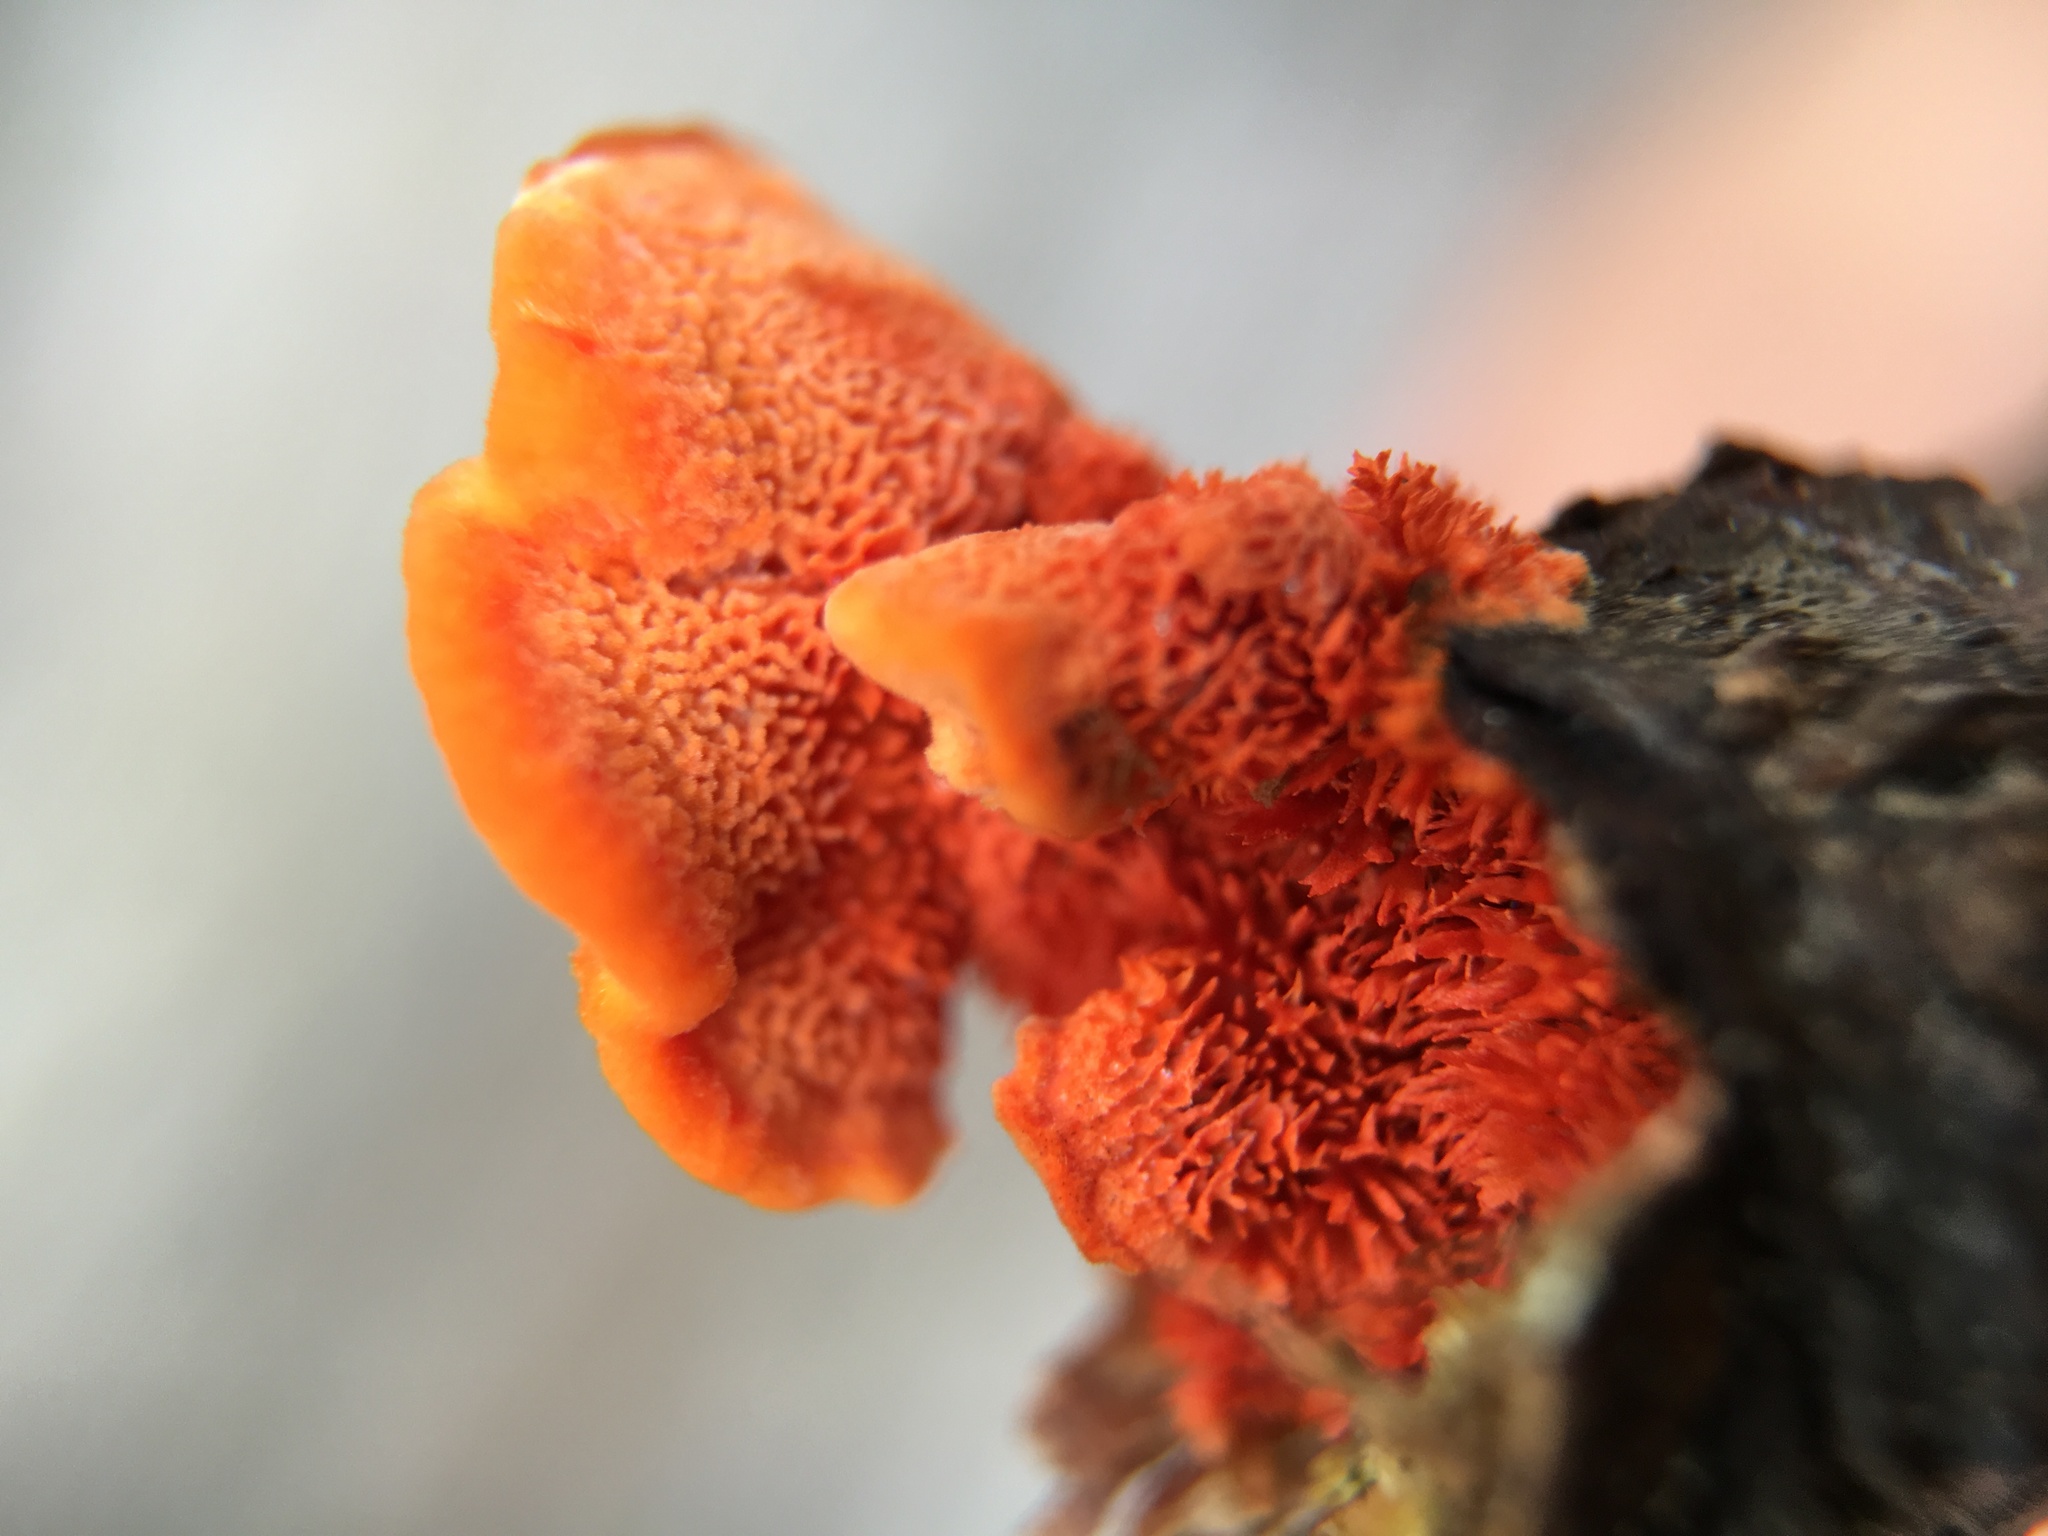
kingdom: Fungi
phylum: Basidiomycota
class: Agaricomycetes
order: Polyporales
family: Polyporaceae
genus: Trametes
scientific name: Trametes cinnabarina
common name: Northern cinnabar polypore
